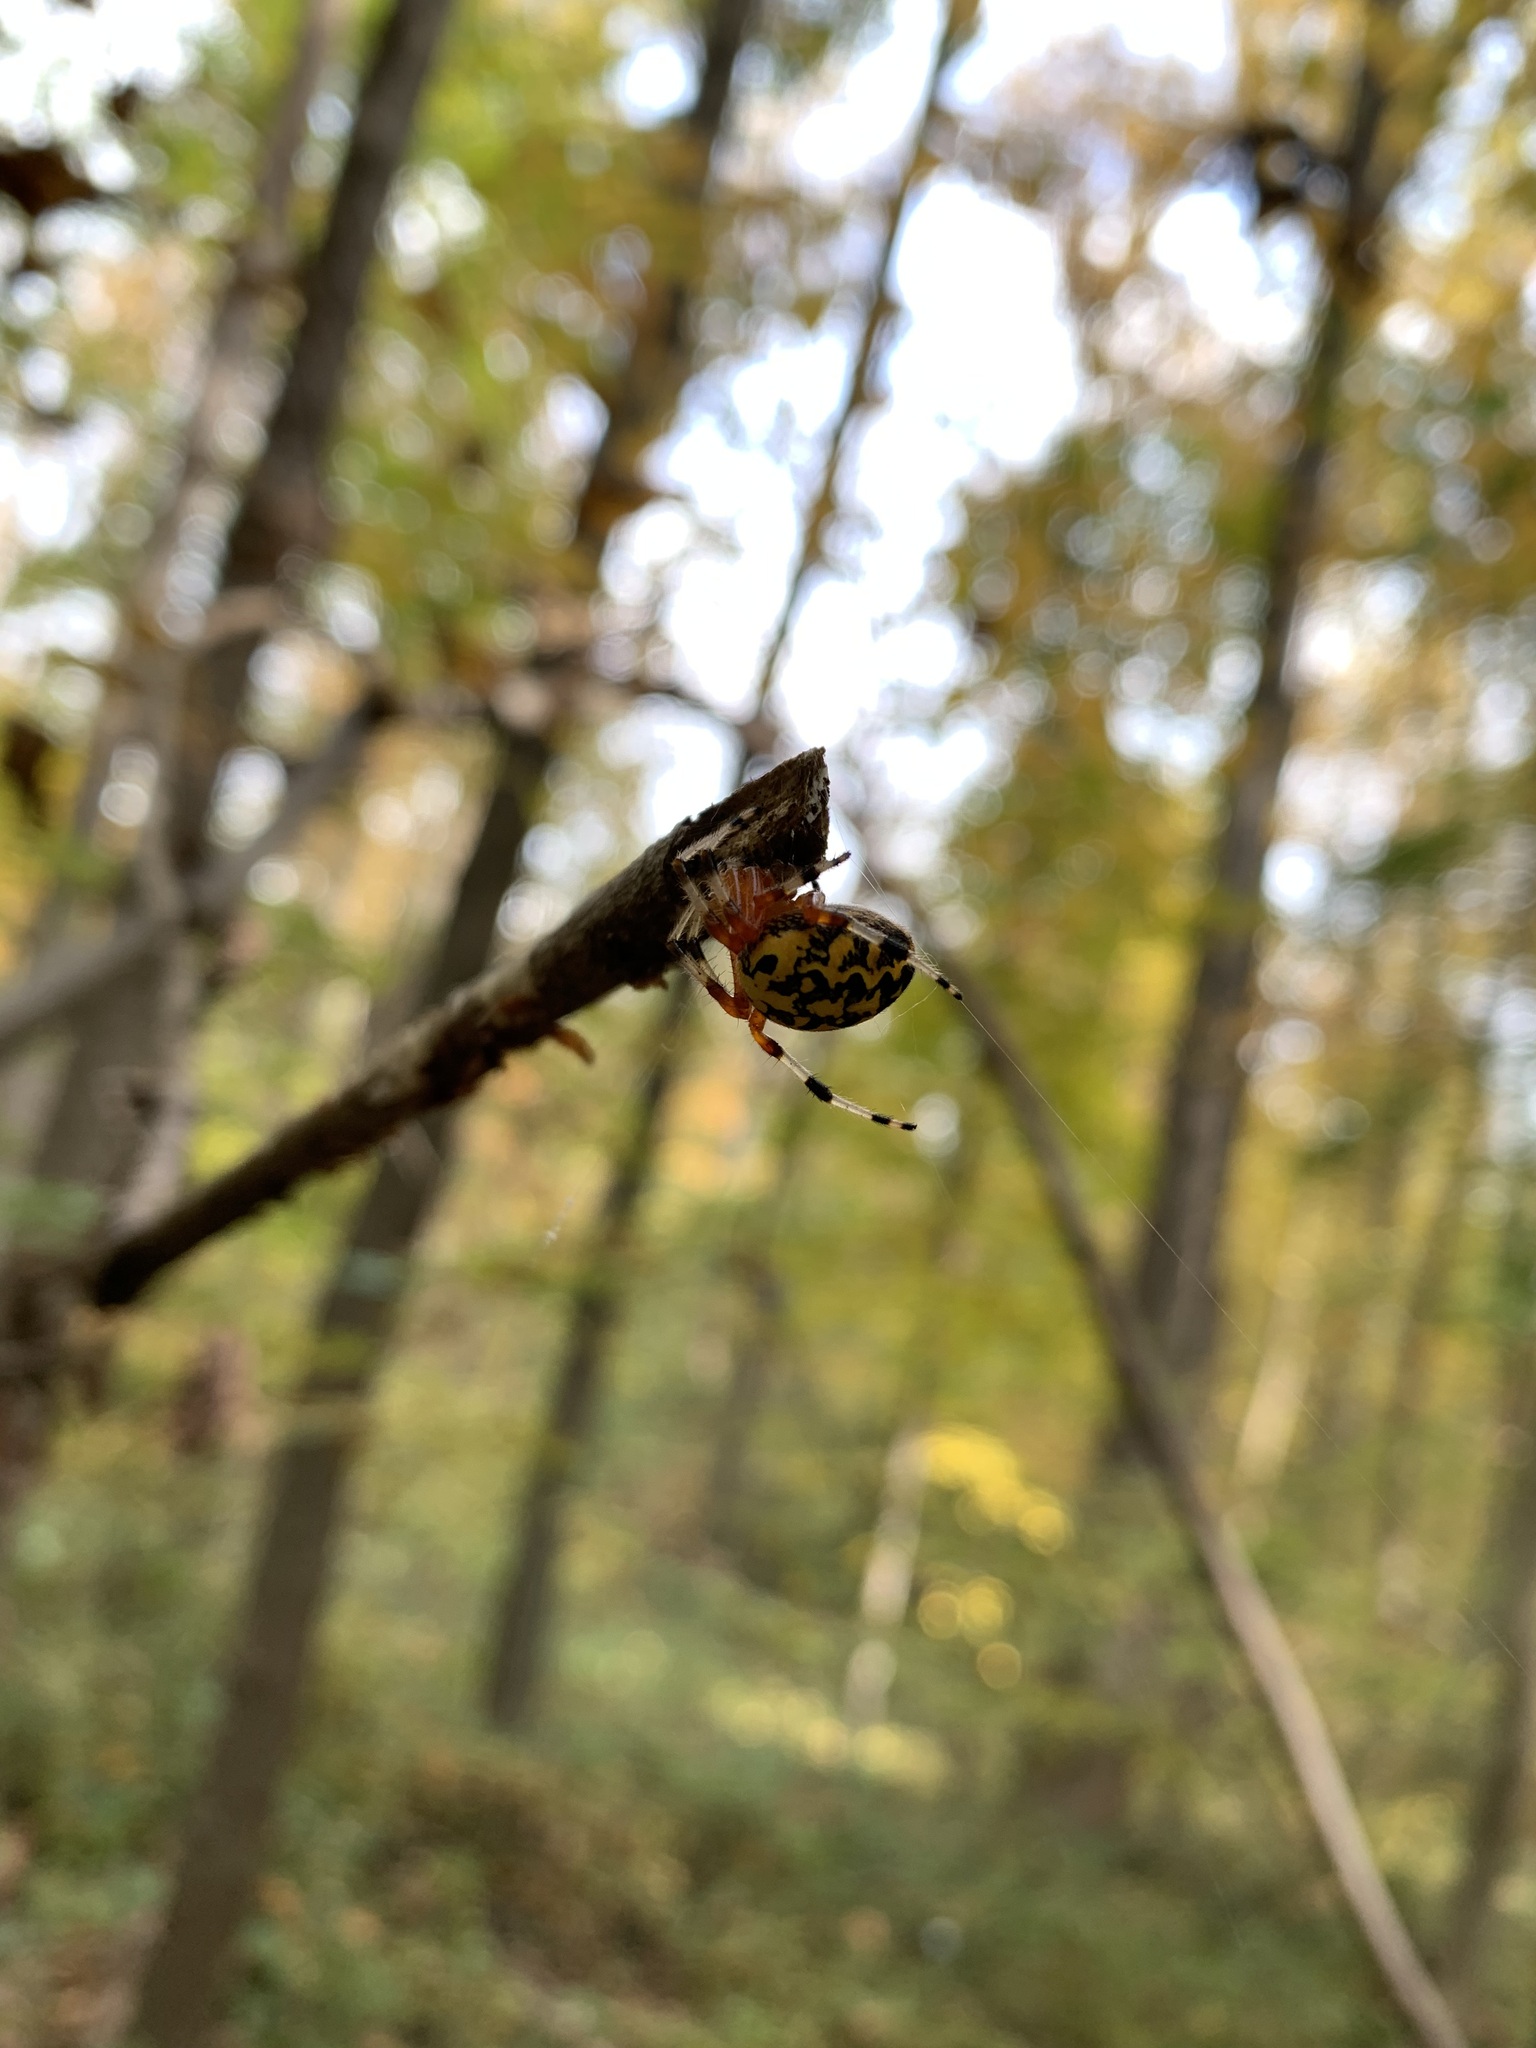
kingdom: Animalia
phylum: Arthropoda
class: Arachnida
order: Araneae
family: Araneidae
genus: Araneus
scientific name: Araneus marmoreus
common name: Marbled orbweaver
